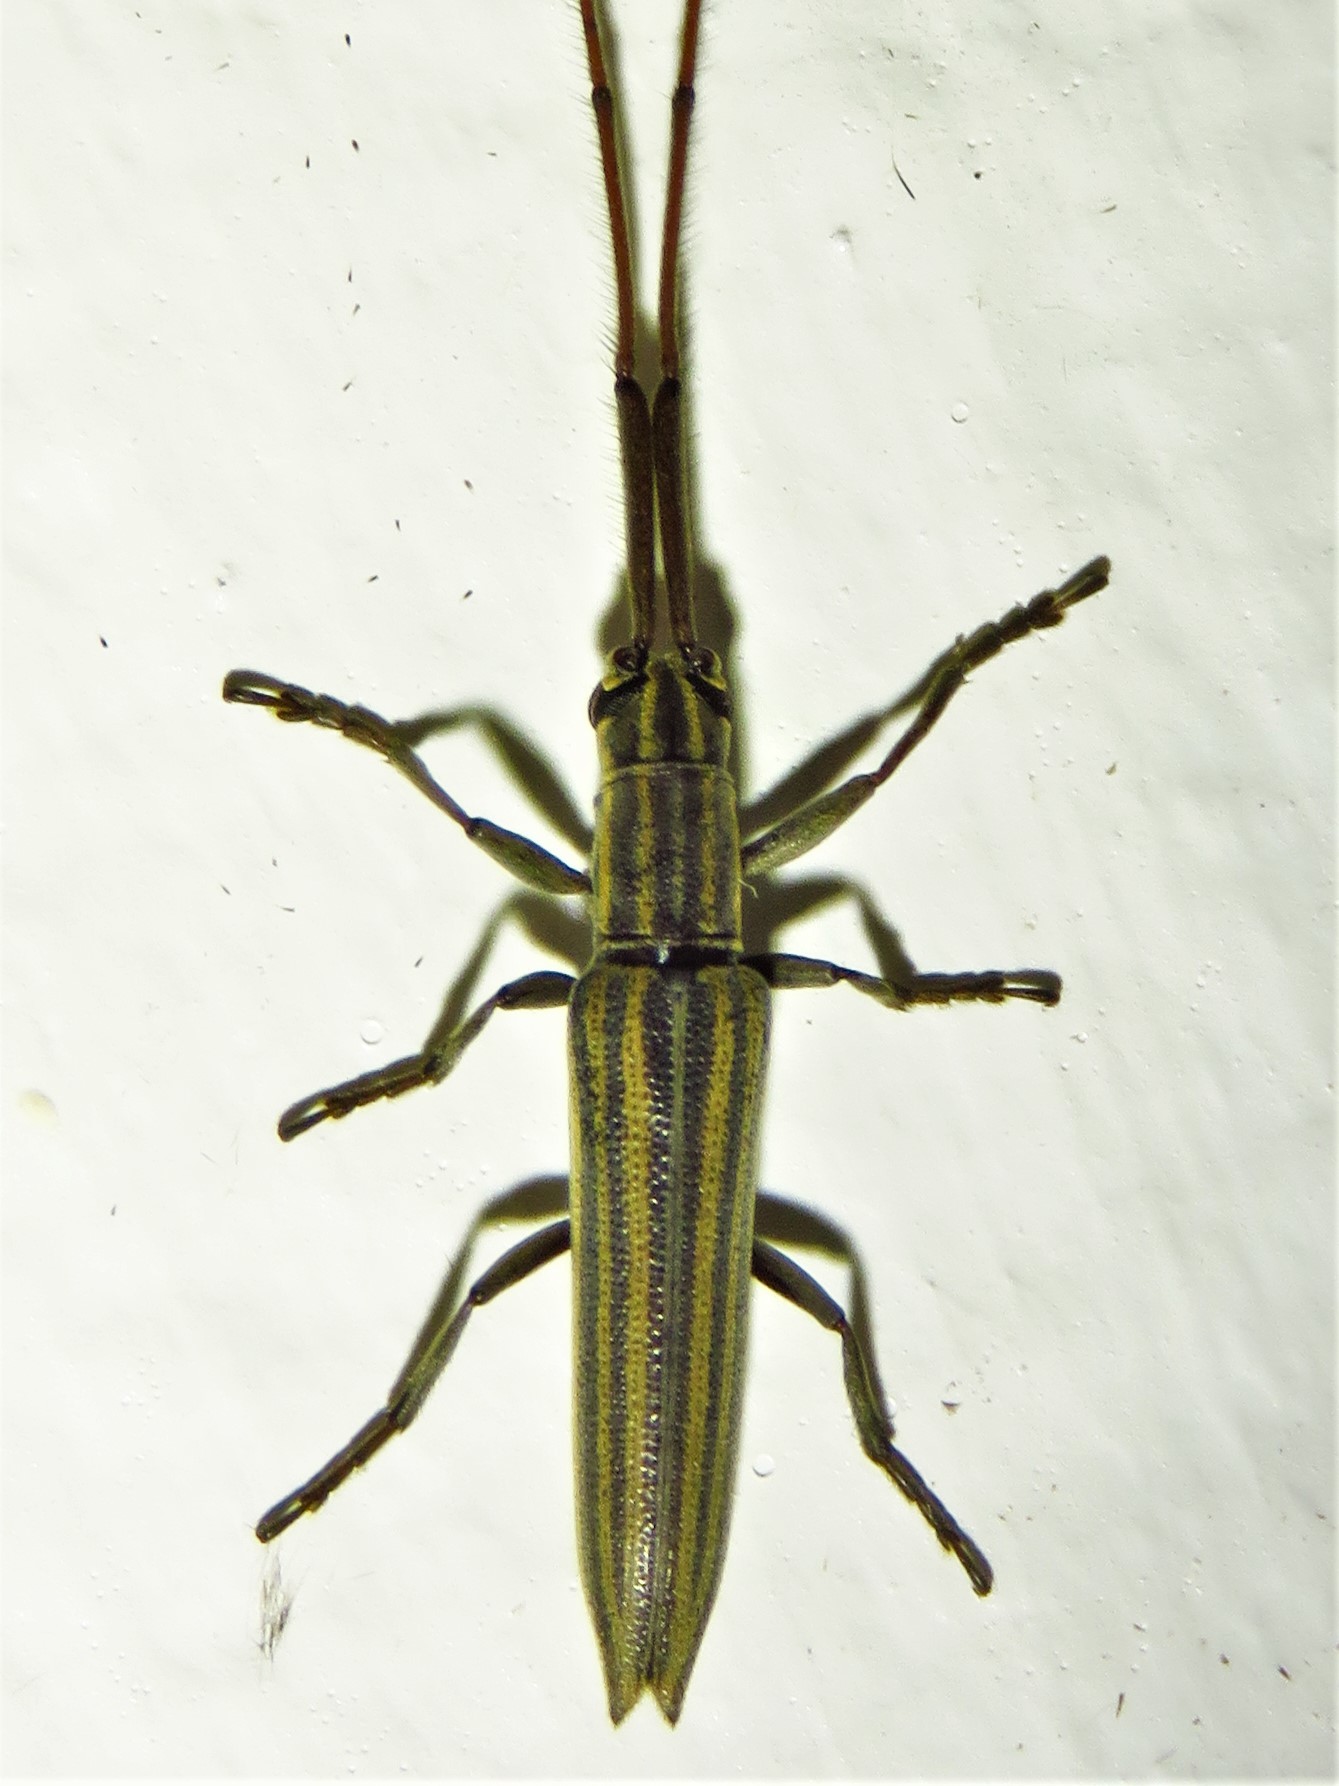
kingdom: Animalia
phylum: Arthropoda
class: Insecta
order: Coleoptera
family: Cerambycidae
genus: Hippopsis
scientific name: Hippopsis
